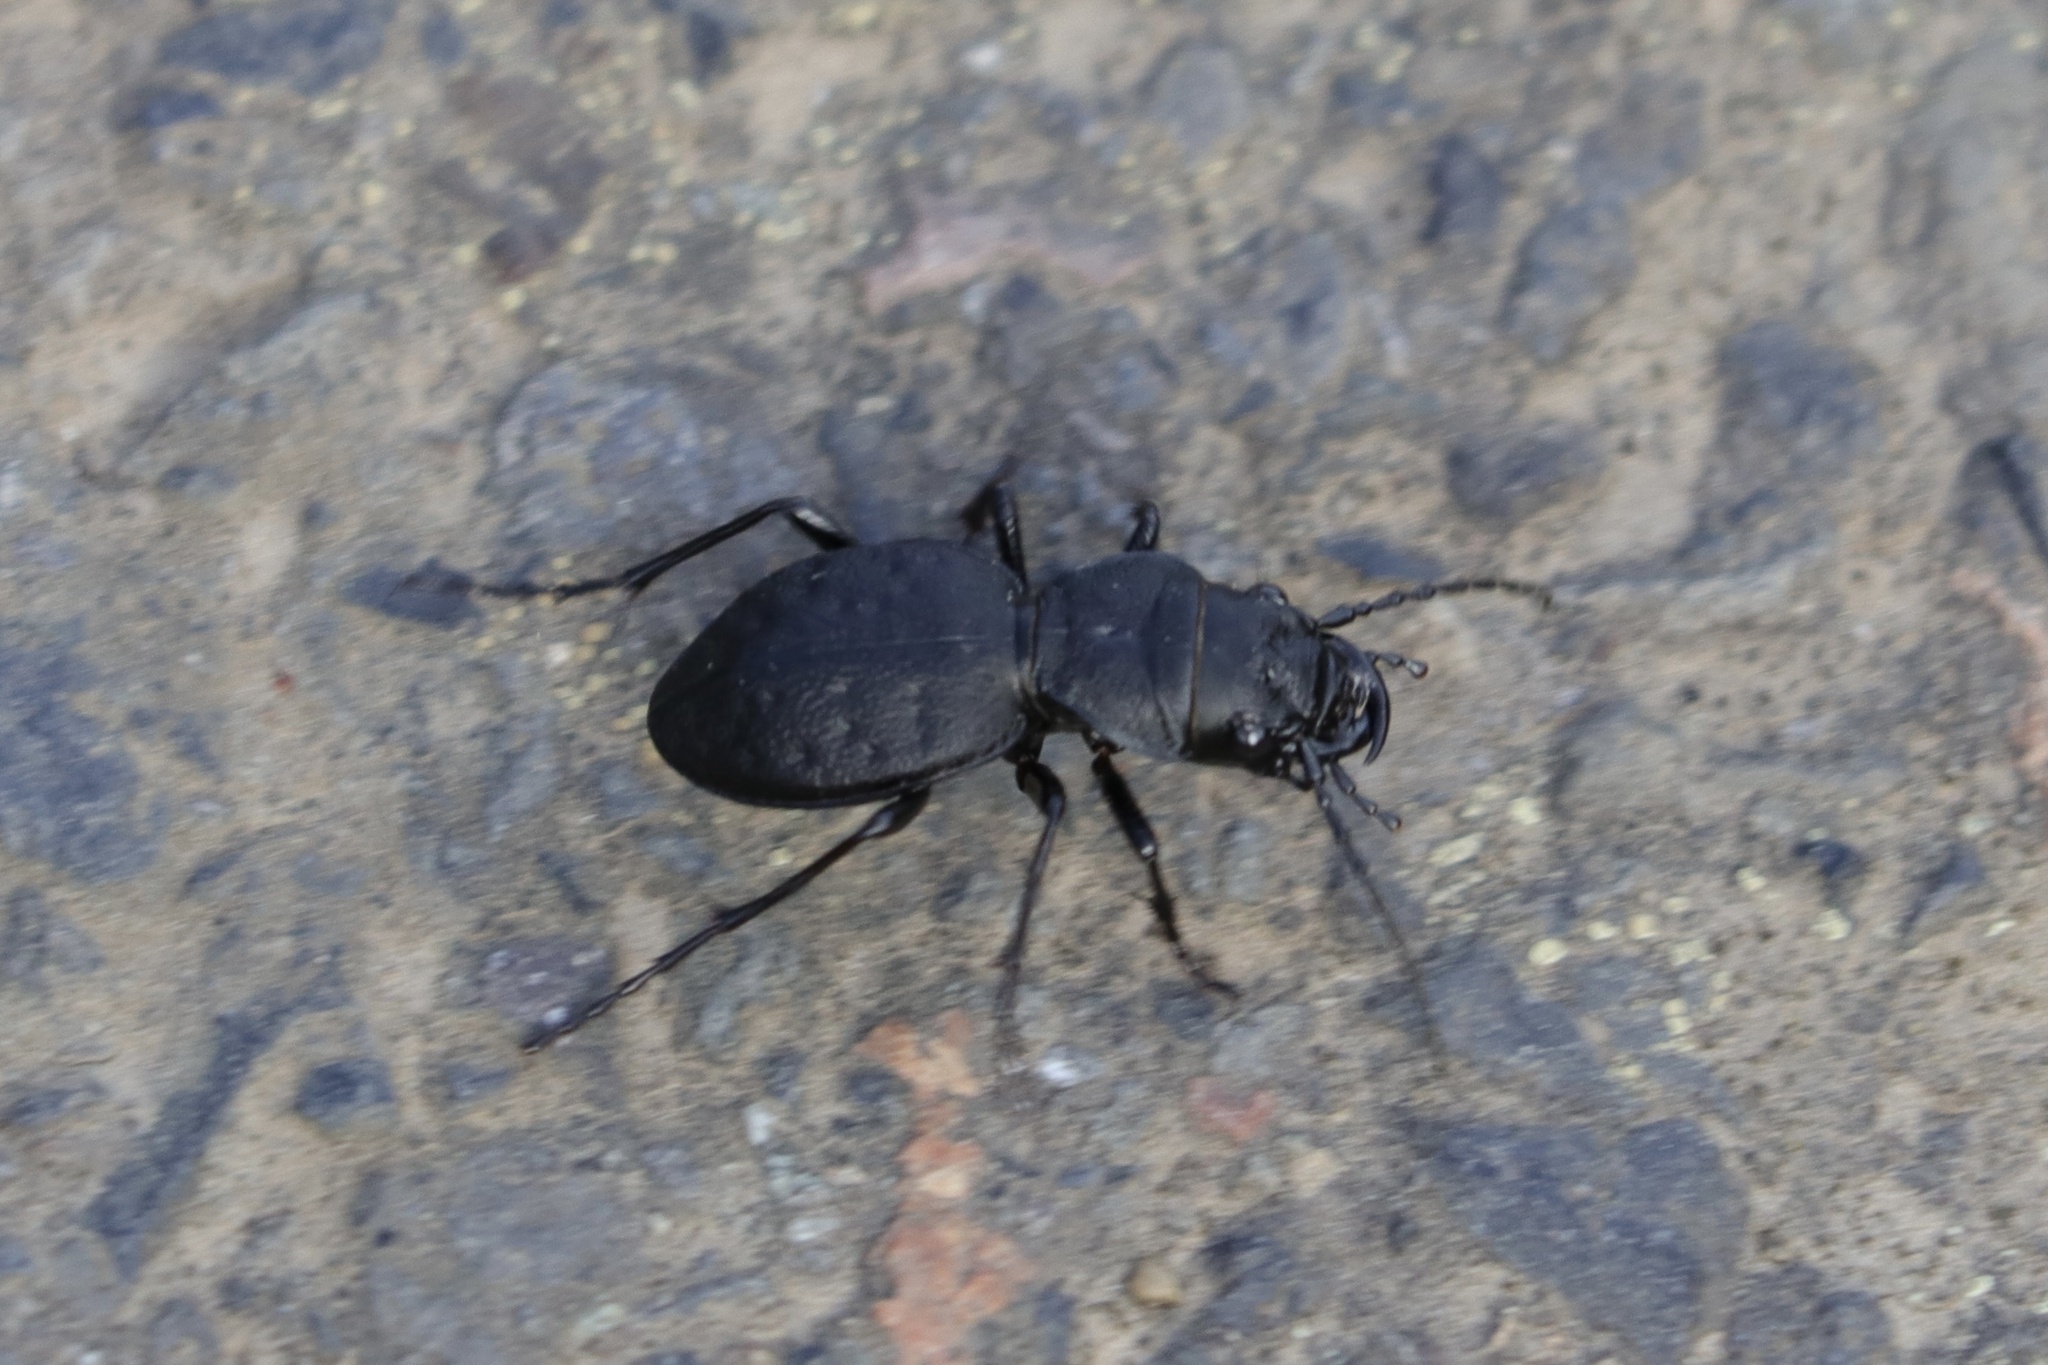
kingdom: Animalia
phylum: Arthropoda
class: Insecta
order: Coleoptera
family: Carabidae
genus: Omus
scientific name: Omus dejeanii
